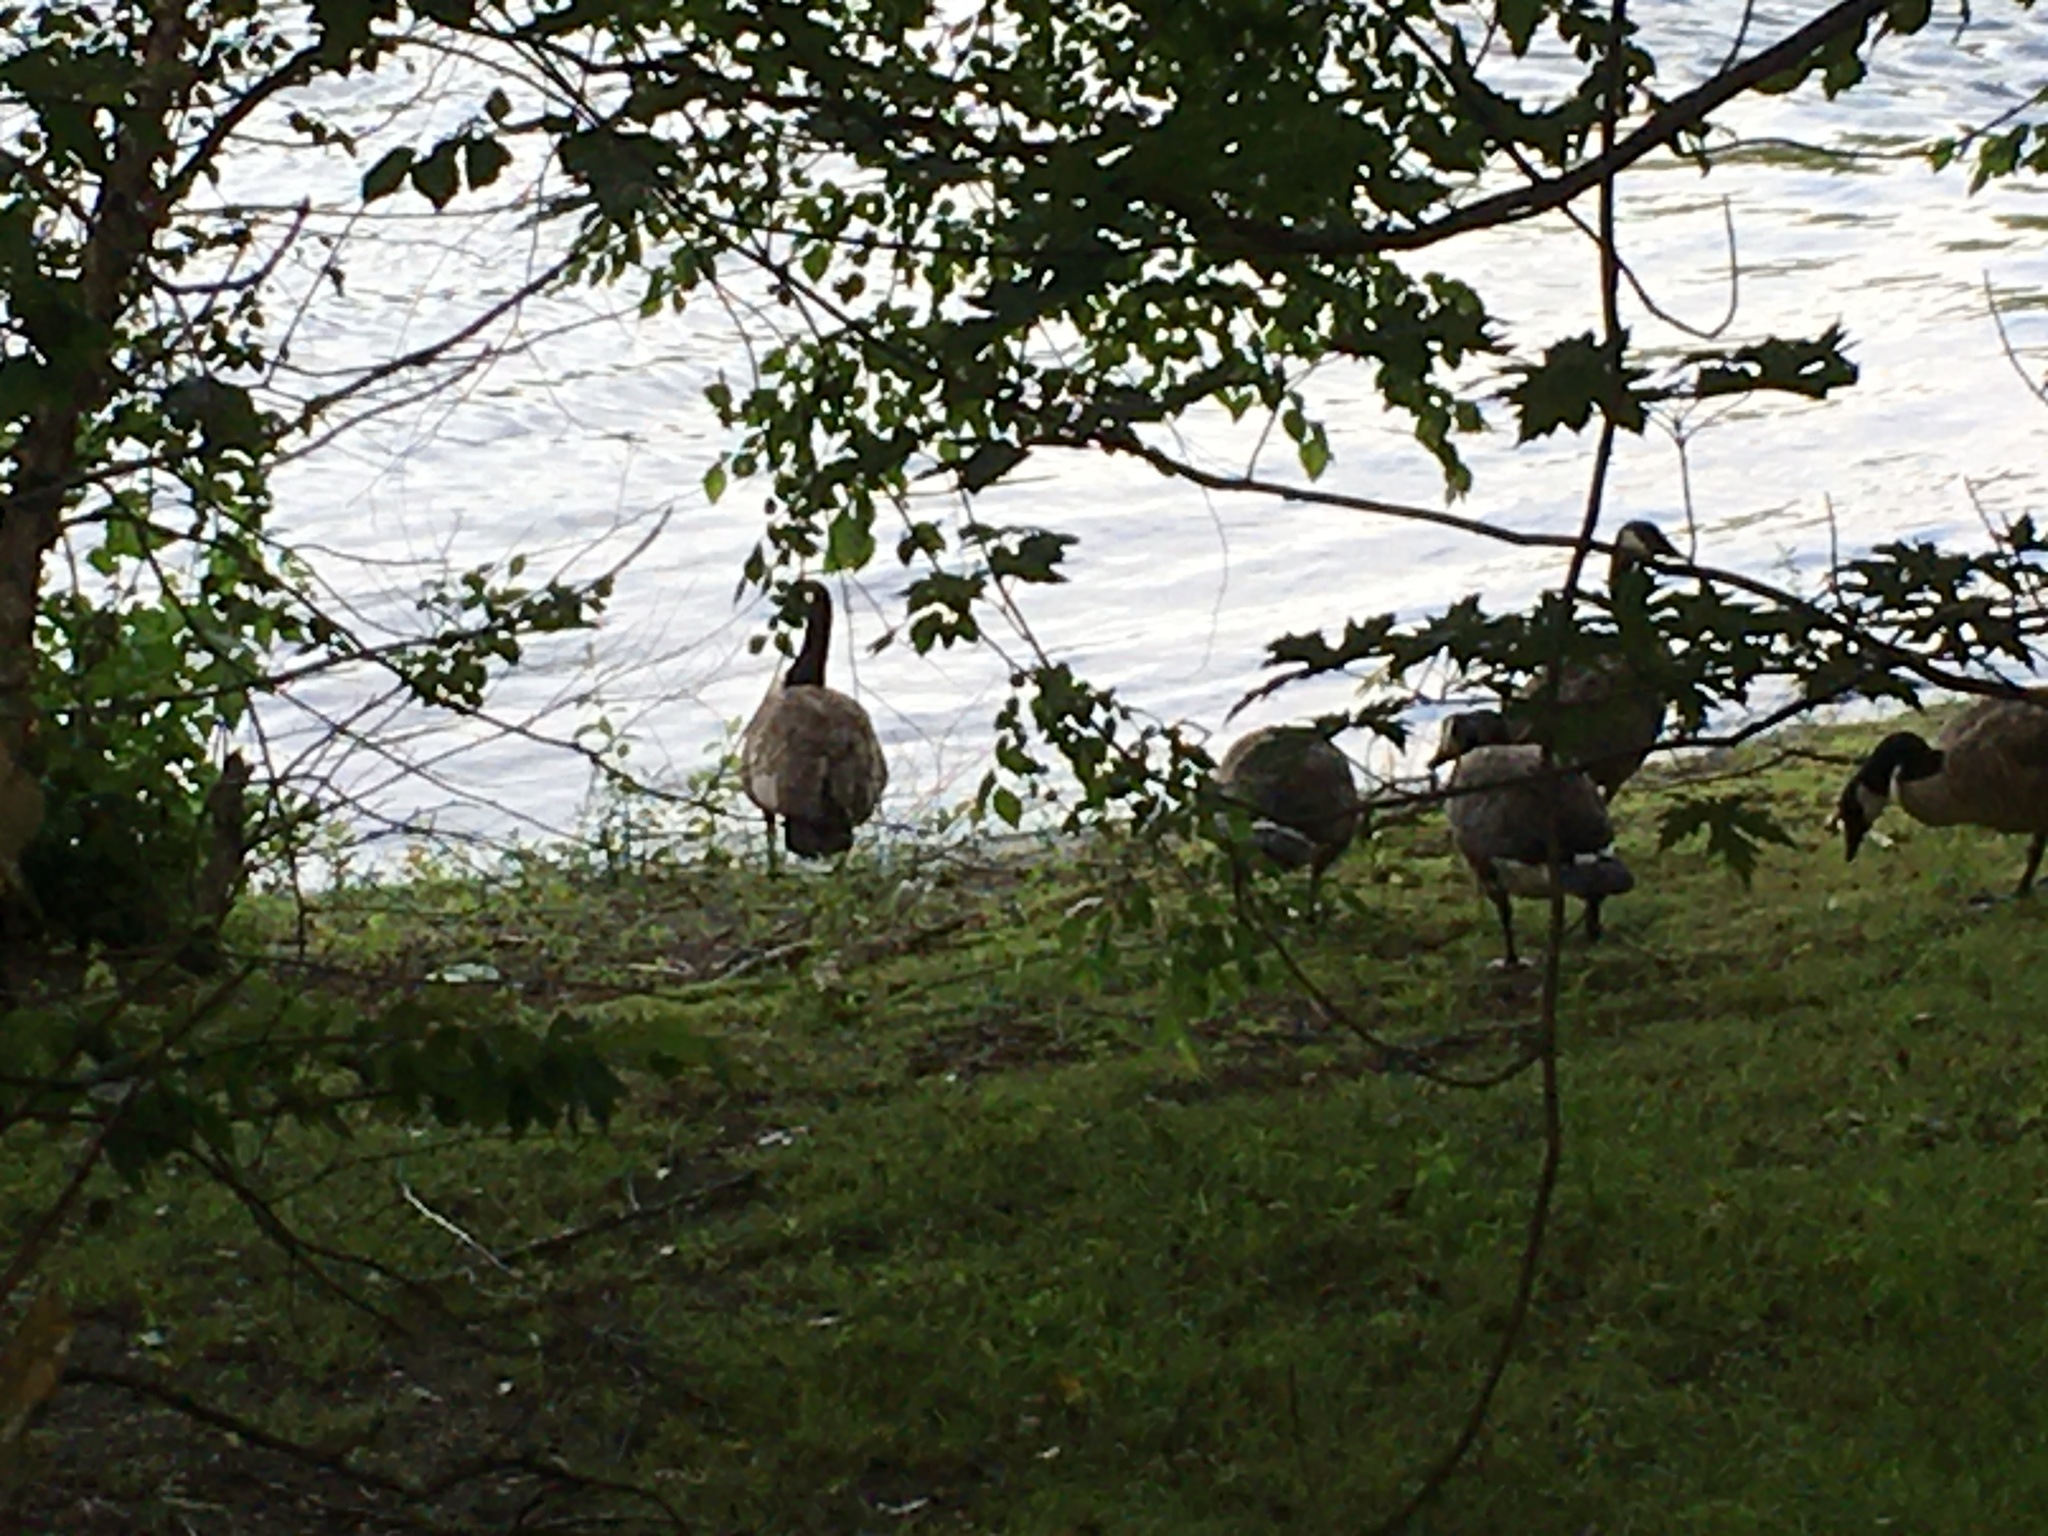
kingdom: Animalia
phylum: Chordata
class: Aves
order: Anseriformes
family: Anatidae
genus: Branta
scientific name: Branta canadensis
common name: Canada goose
